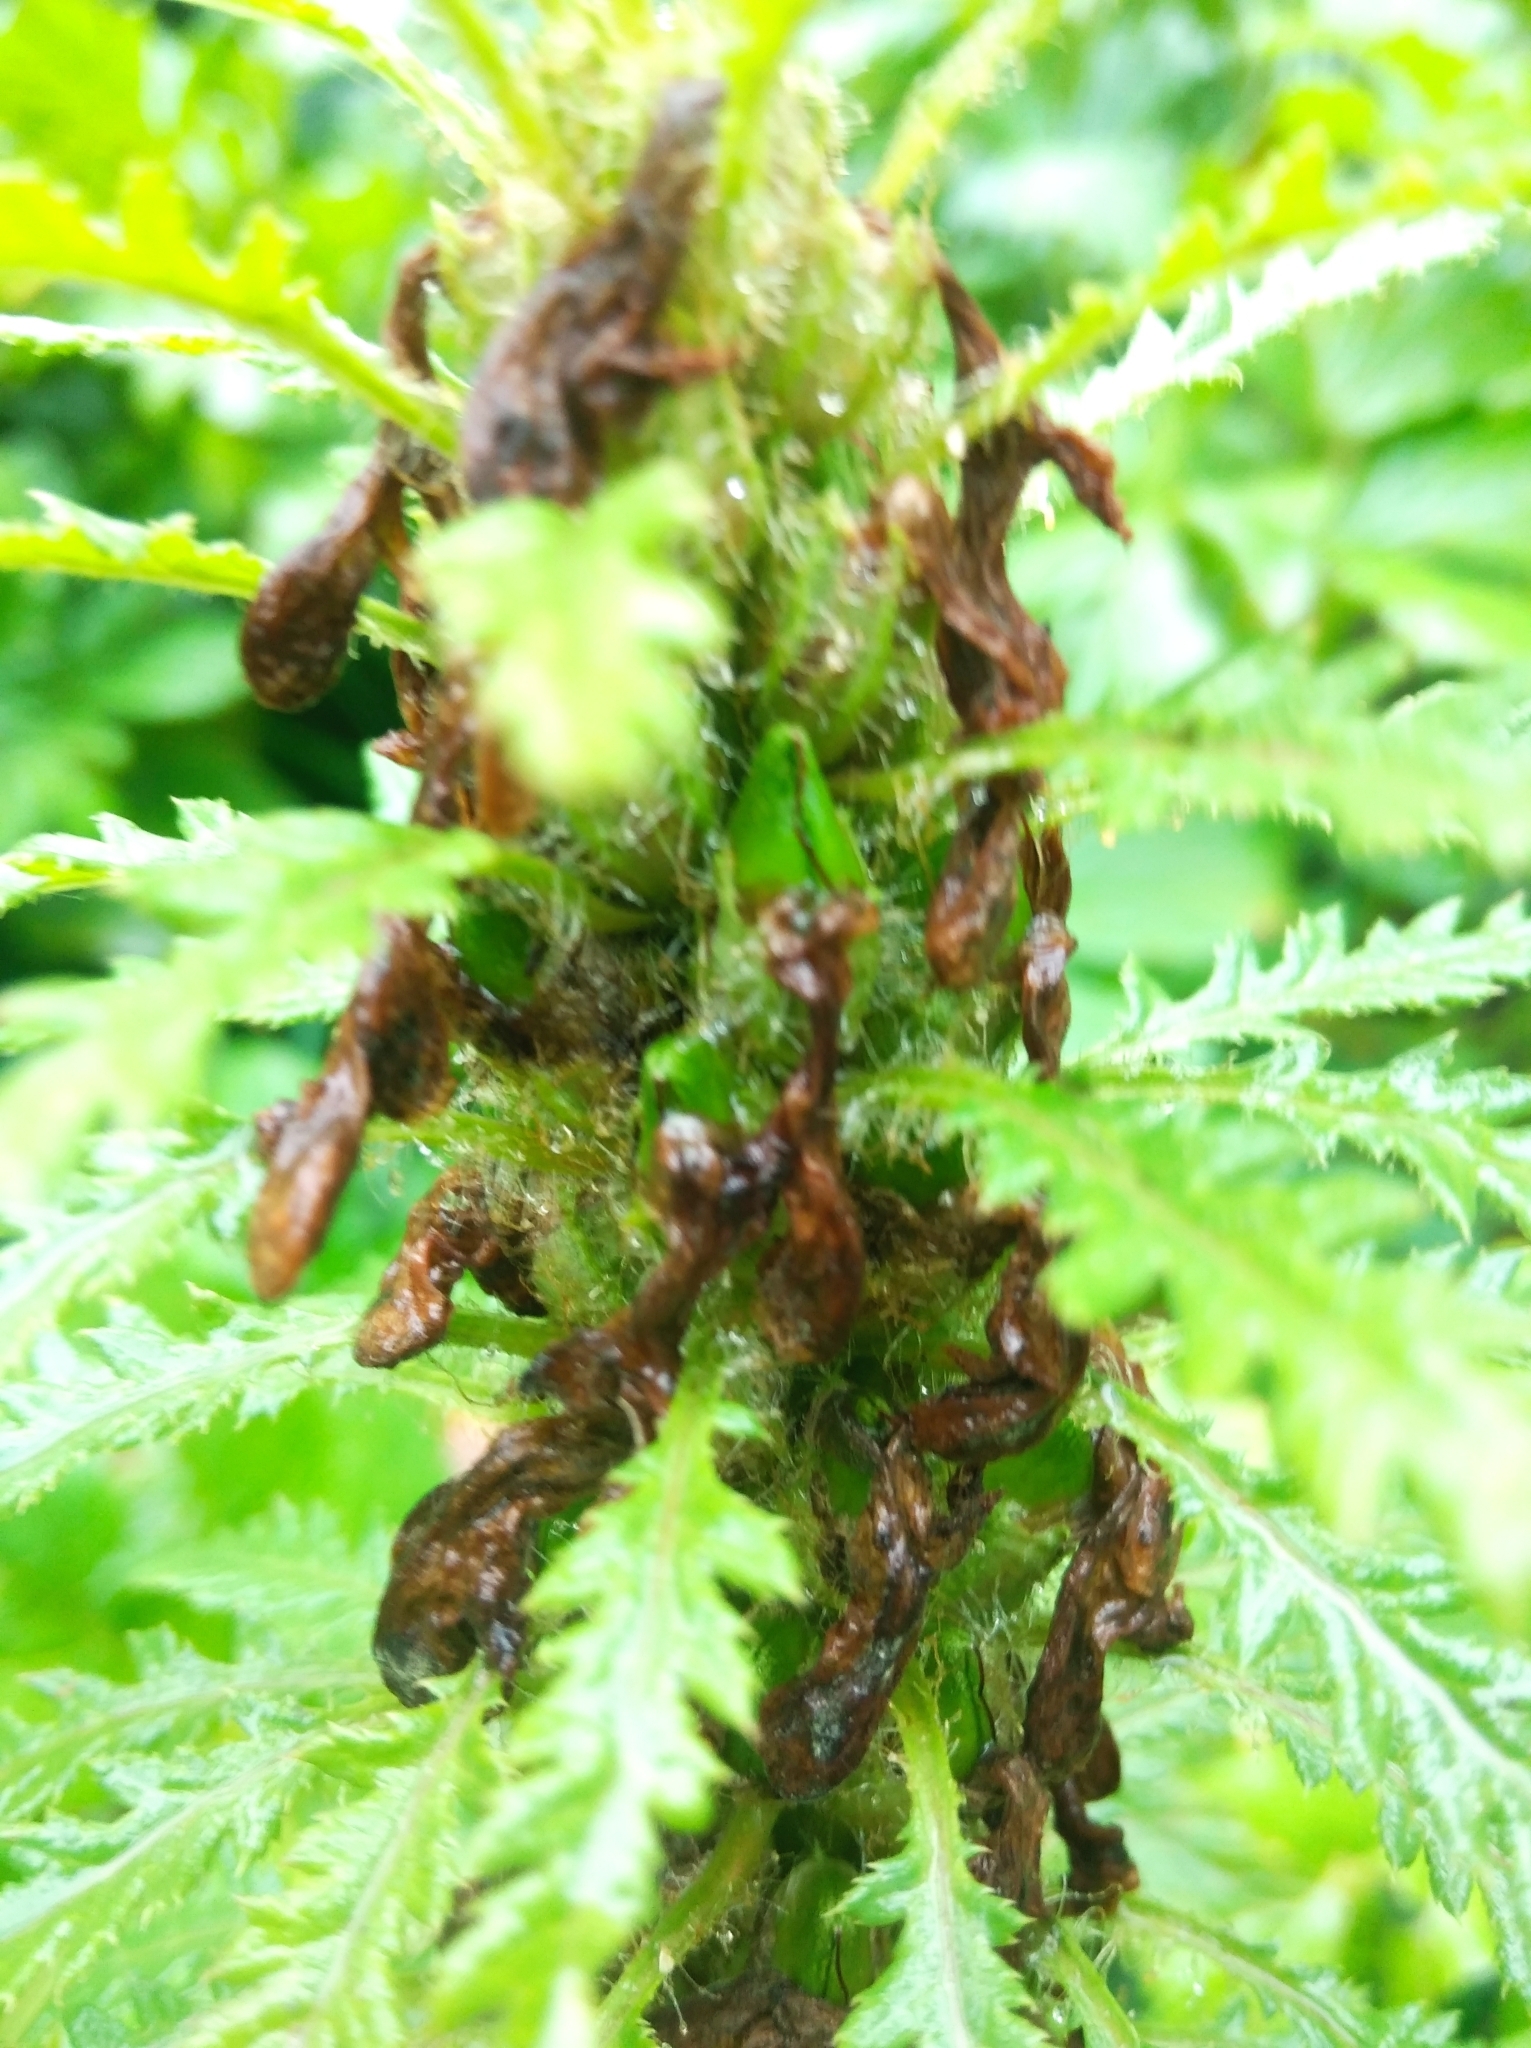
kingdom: Plantae
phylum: Tracheophyta
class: Magnoliopsida
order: Lamiales
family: Orobanchaceae
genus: Pedicularis
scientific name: Pedicularis foliosa
